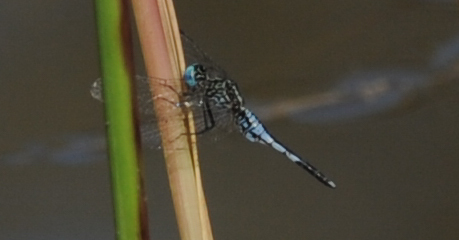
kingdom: Animalia
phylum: Arthropoda
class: Insecta
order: Odonata
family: Libellulidae
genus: Acisoma
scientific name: Acisoma inflatum
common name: Stout pintail
